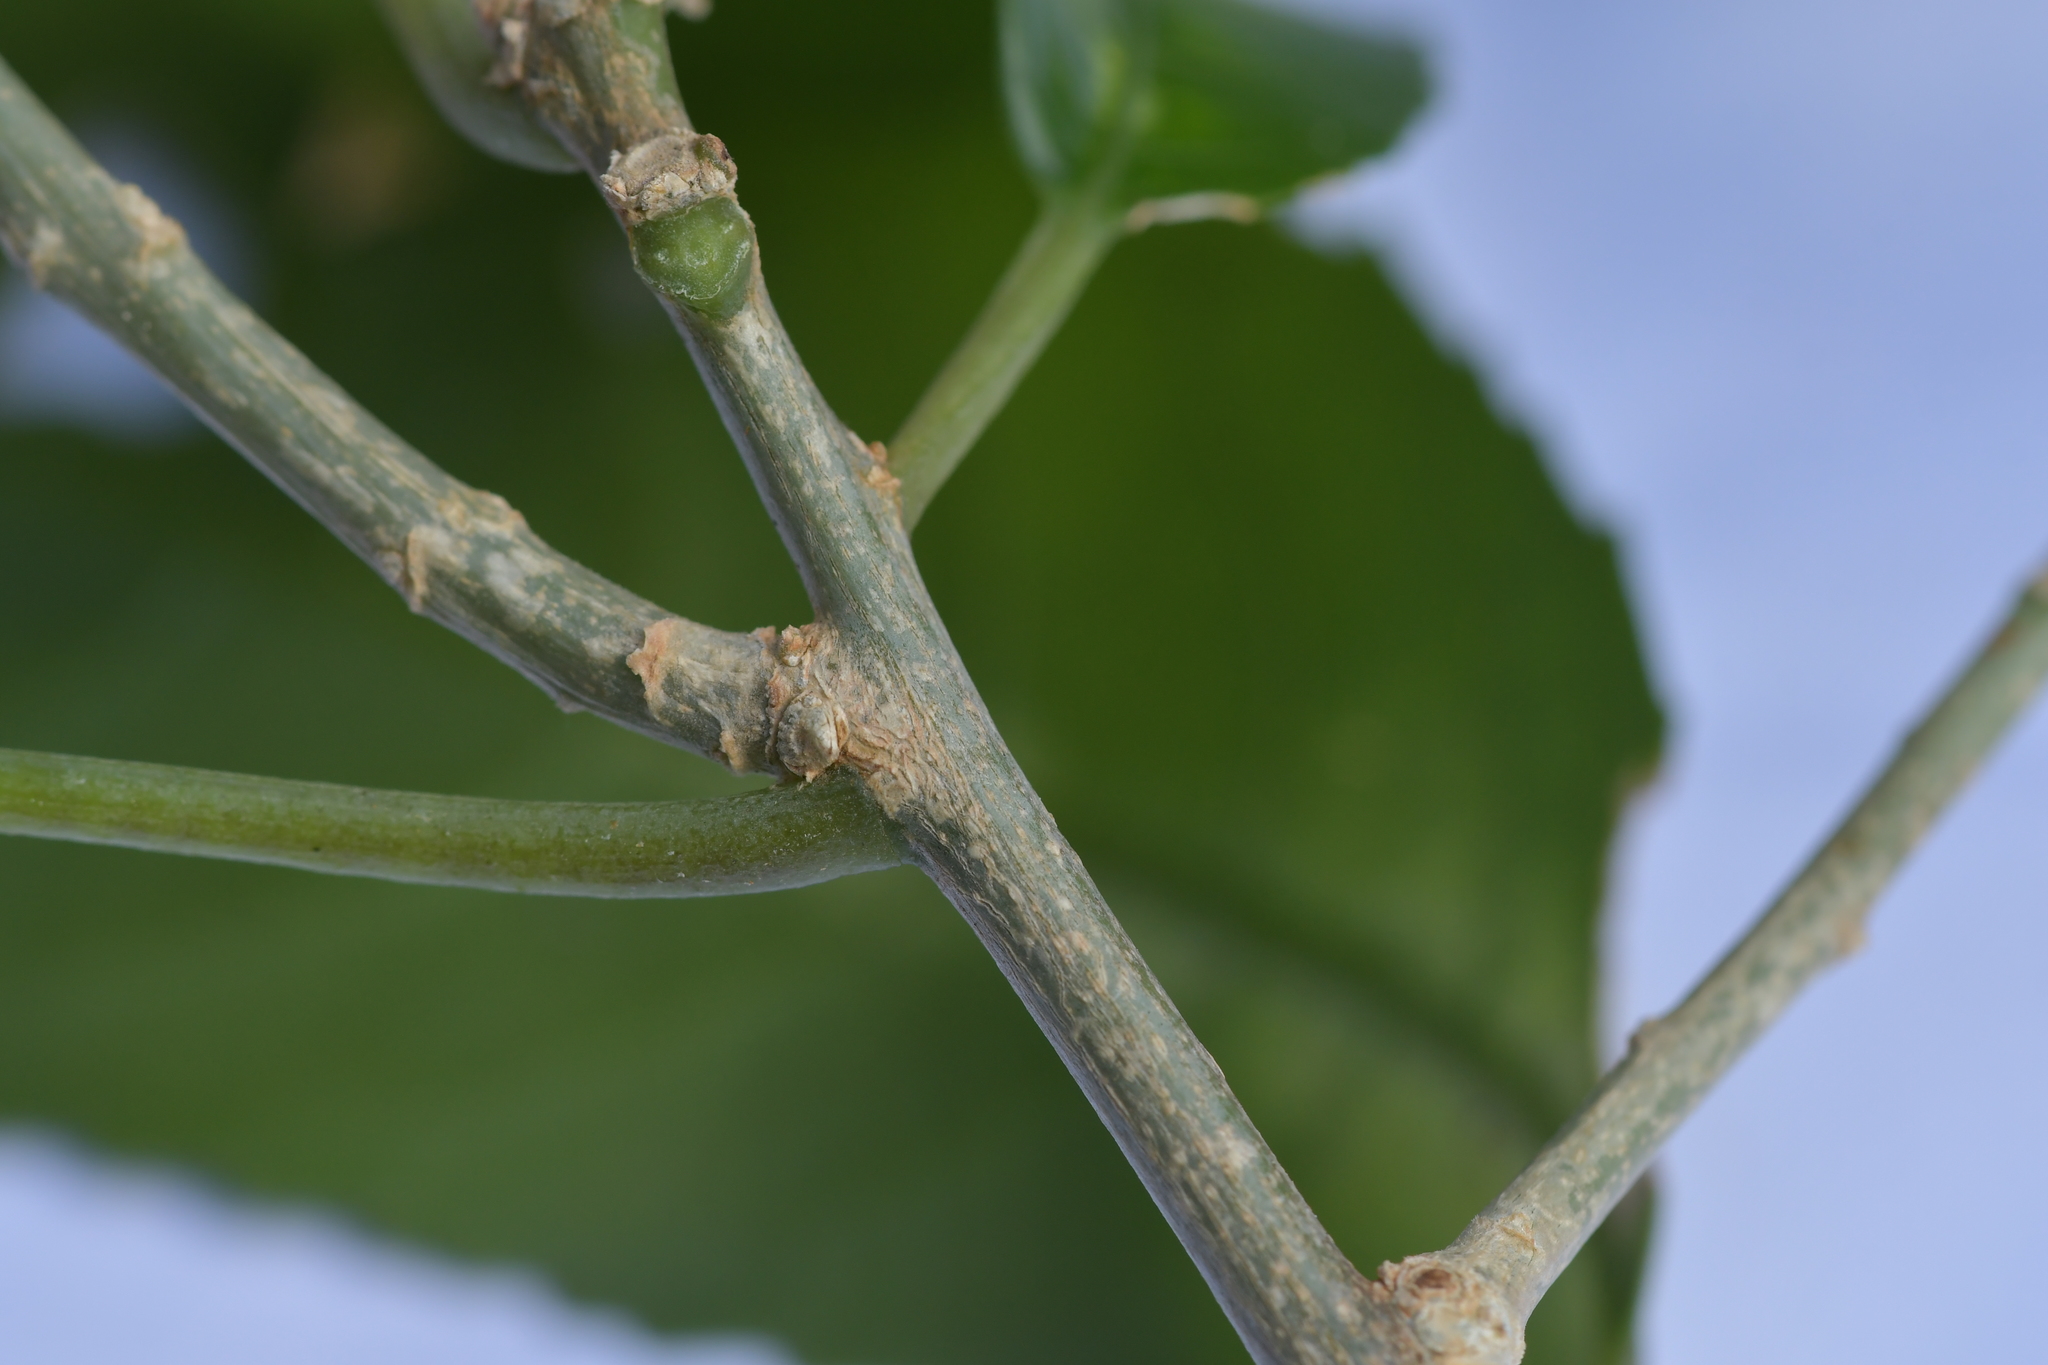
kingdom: Plantae
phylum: Tracheophyta
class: Magnoliopsida
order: Malpighiales
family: Violaceae
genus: Melicytus
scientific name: Melicytus ramiflorus
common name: Mahoe
